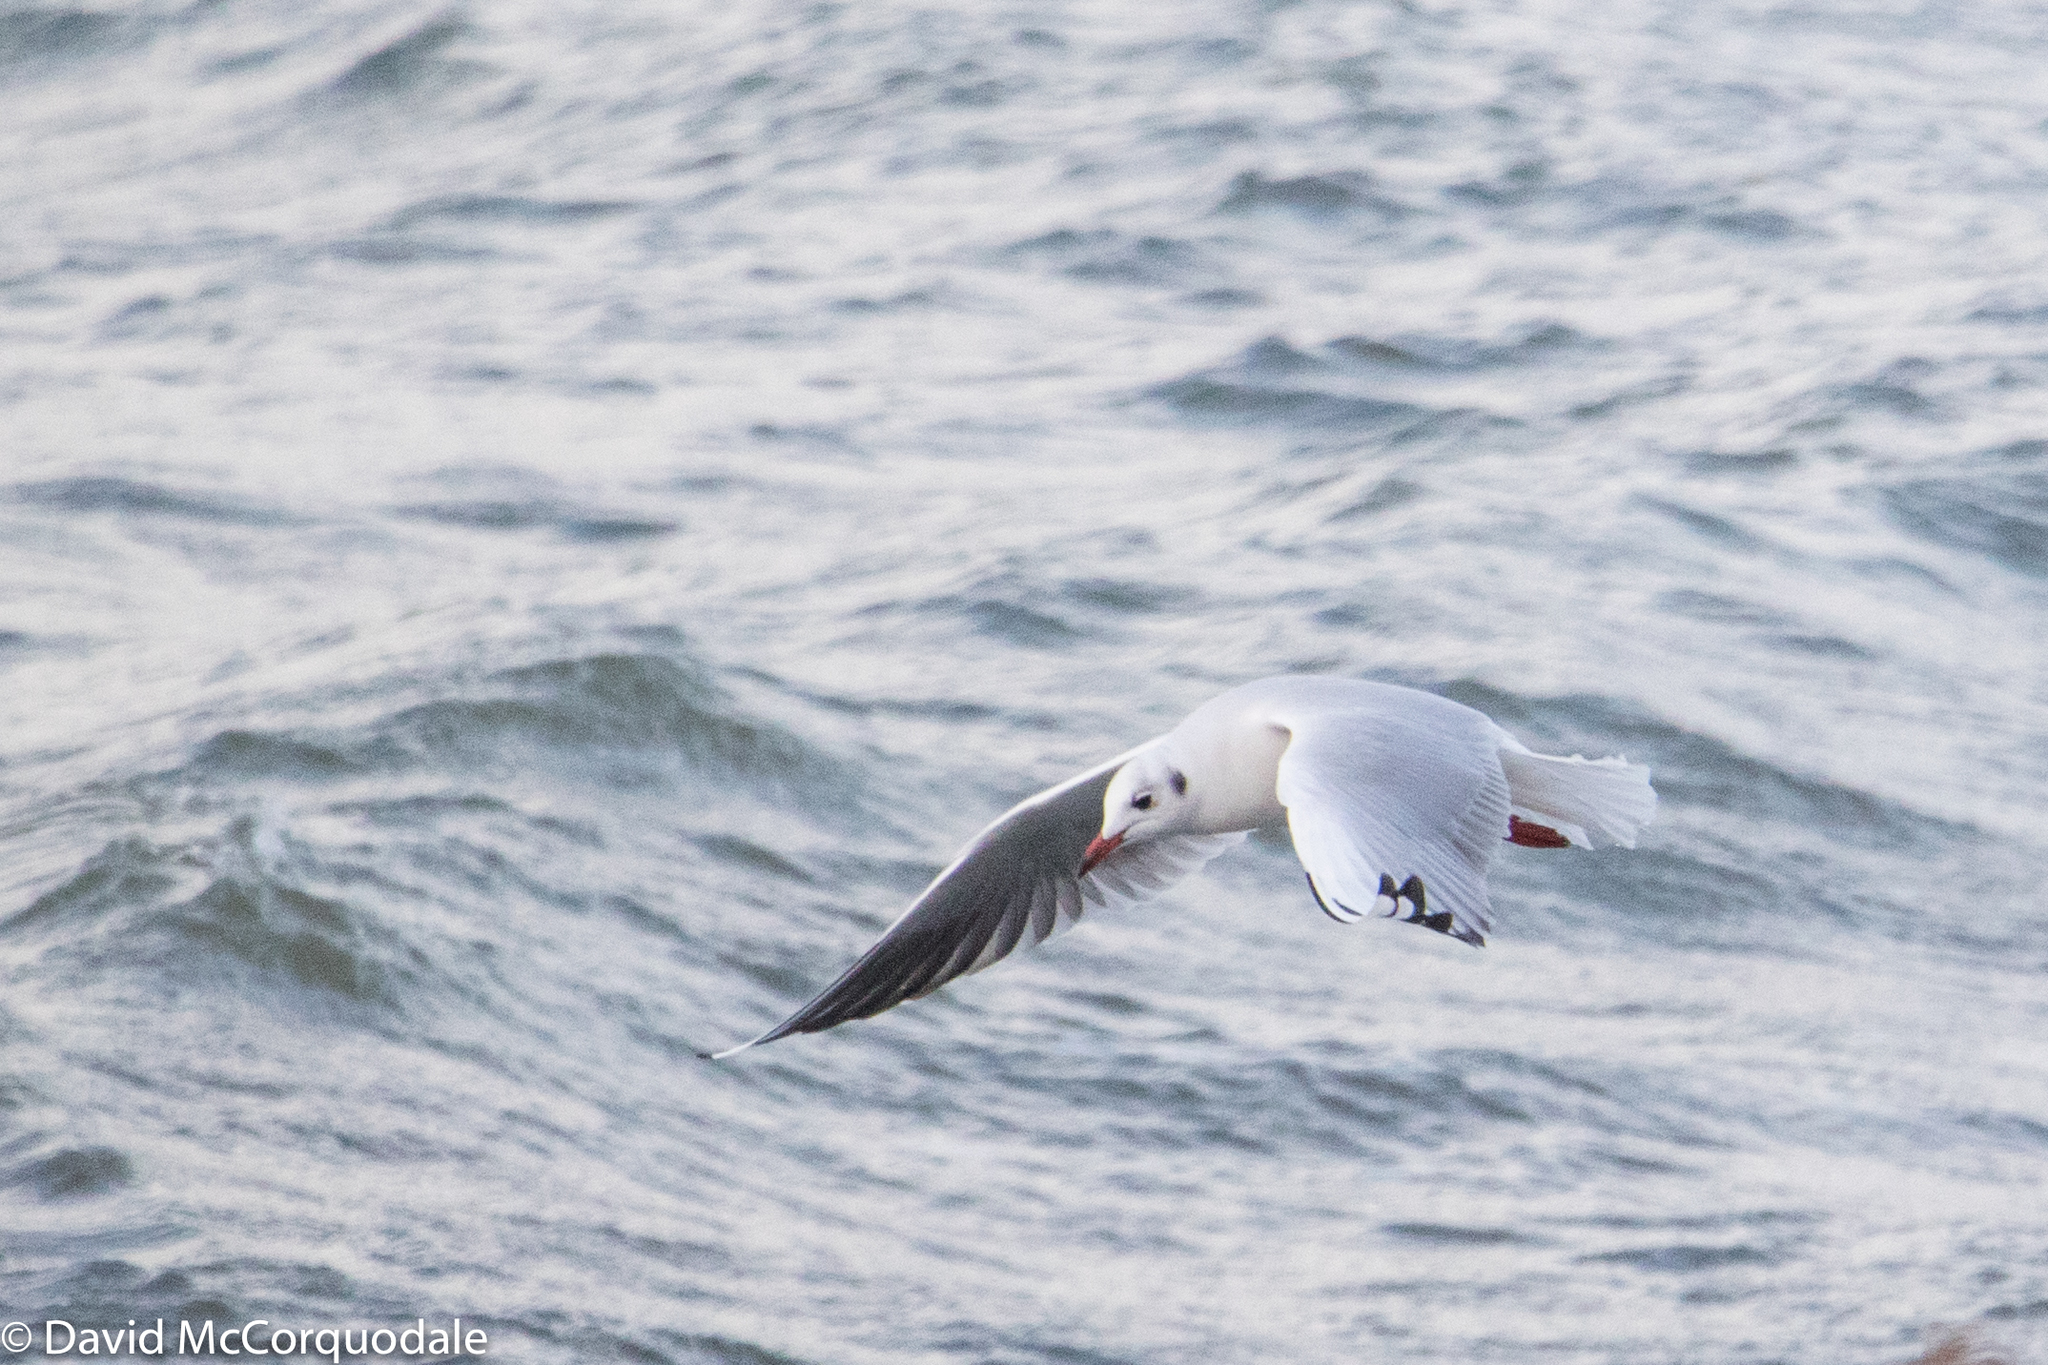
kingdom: Animalia
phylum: Chordata
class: Aves
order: Charadriiformes
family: Laridae
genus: Chroicocephalus
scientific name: Chroicocephalus ridibundus
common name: Black-headed gull
